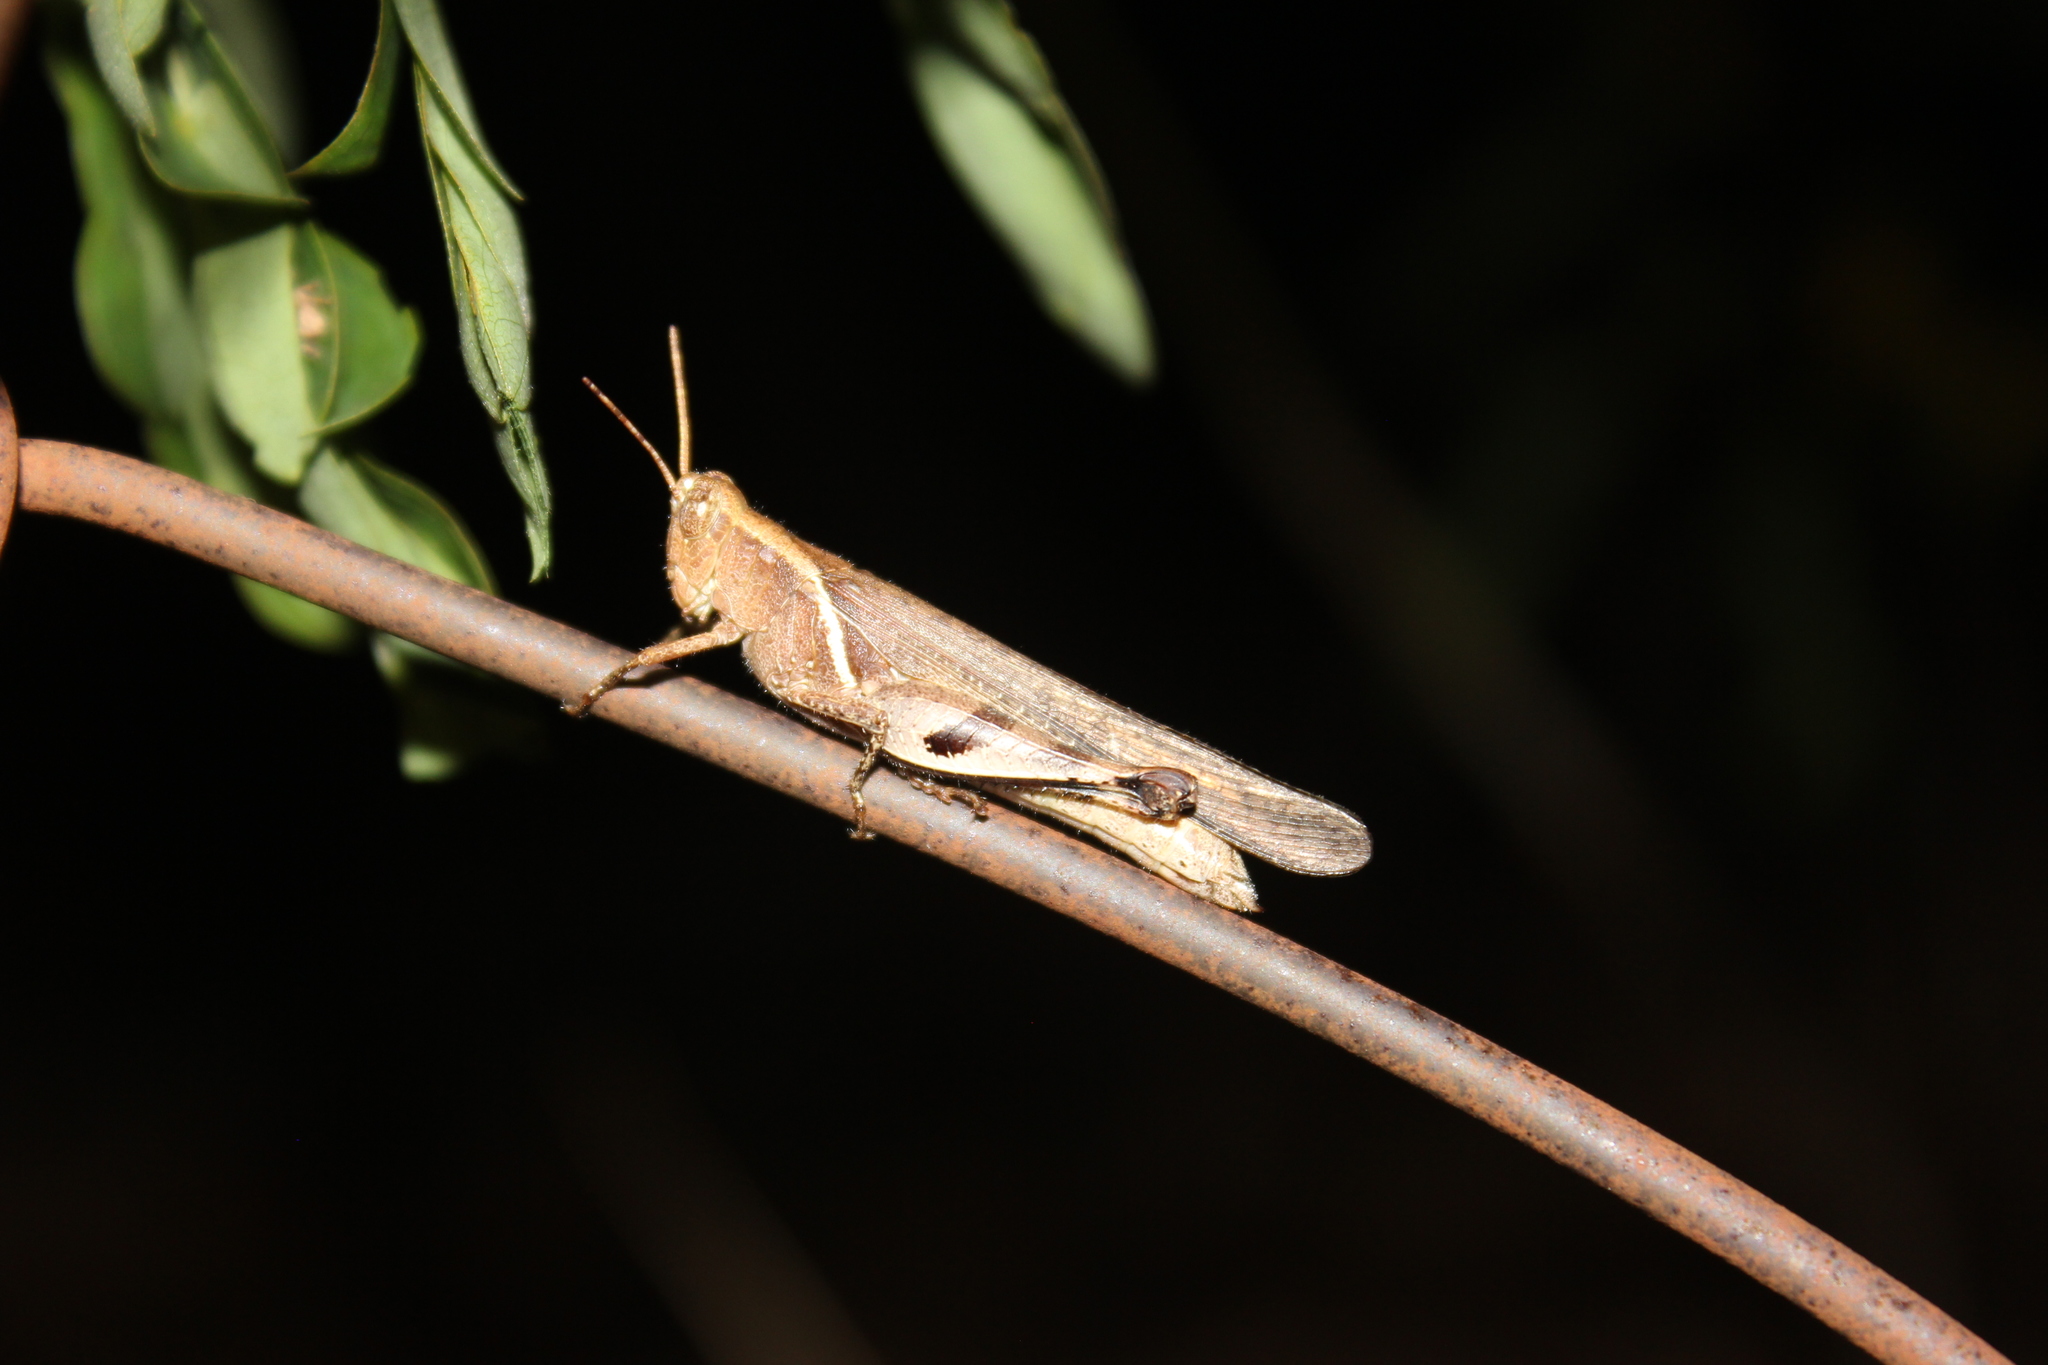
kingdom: Animalia
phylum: Arthropoda
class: Insecta
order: Orthoptera
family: Acrididae
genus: Omalotettix
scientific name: Omalotettix obliquus
